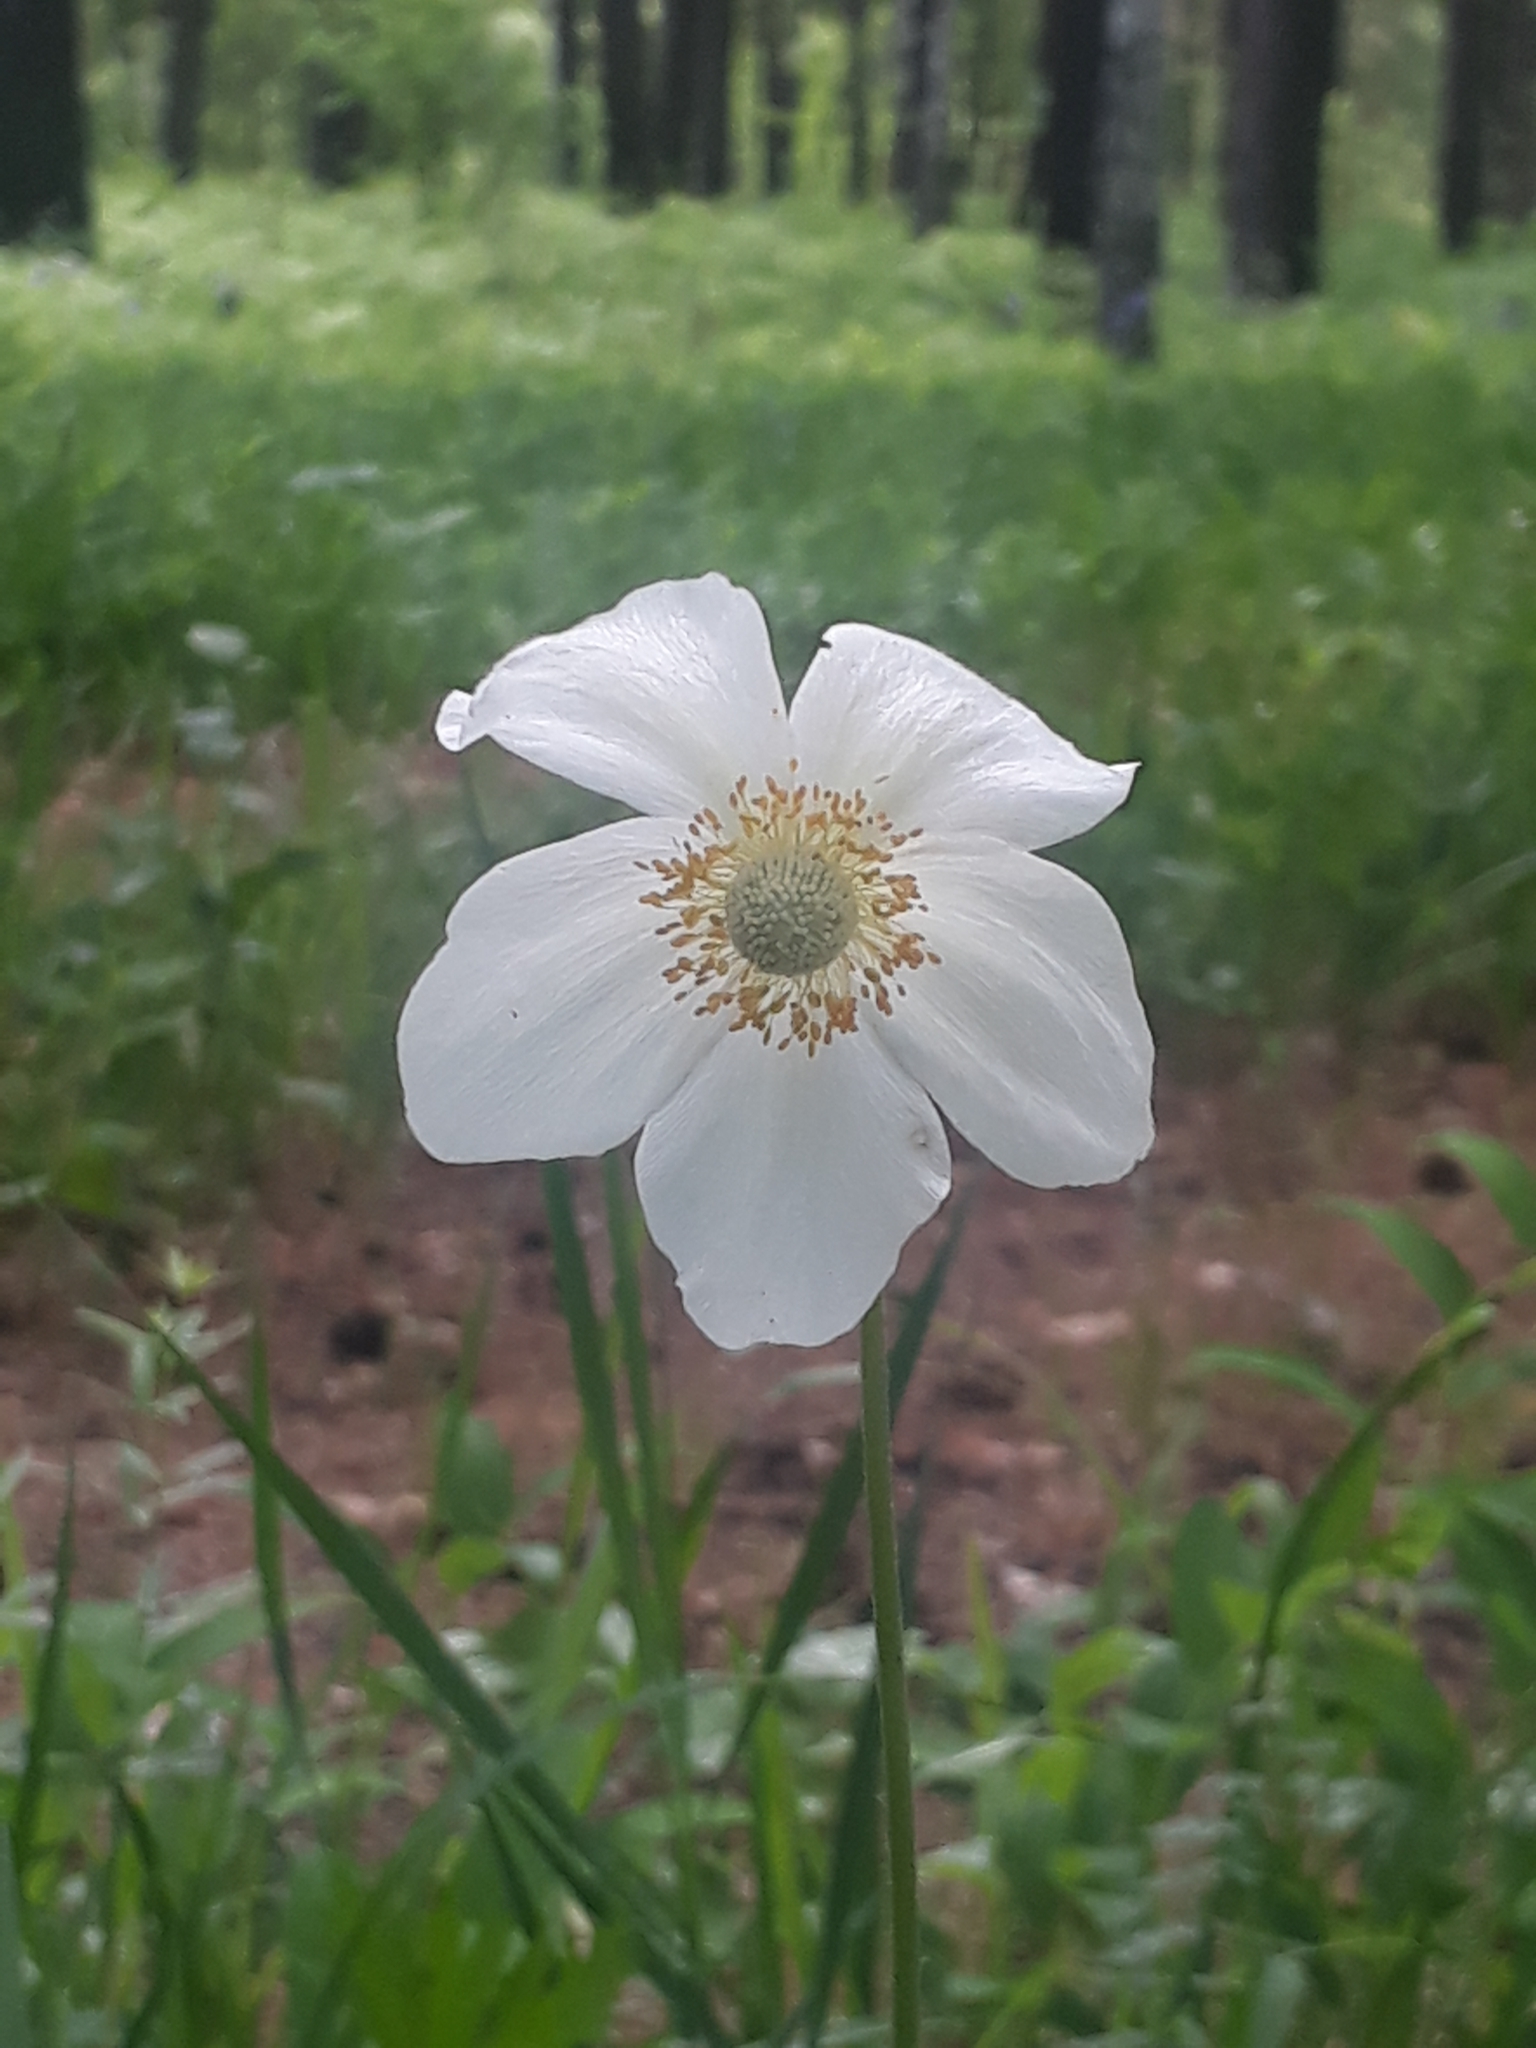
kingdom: Plantae
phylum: Tracheophyta
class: Magnoliopsida
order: Ranunculales
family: Ranunculaceae
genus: Anemone
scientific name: Anemone sylvestris
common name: Snowdrop anemone
